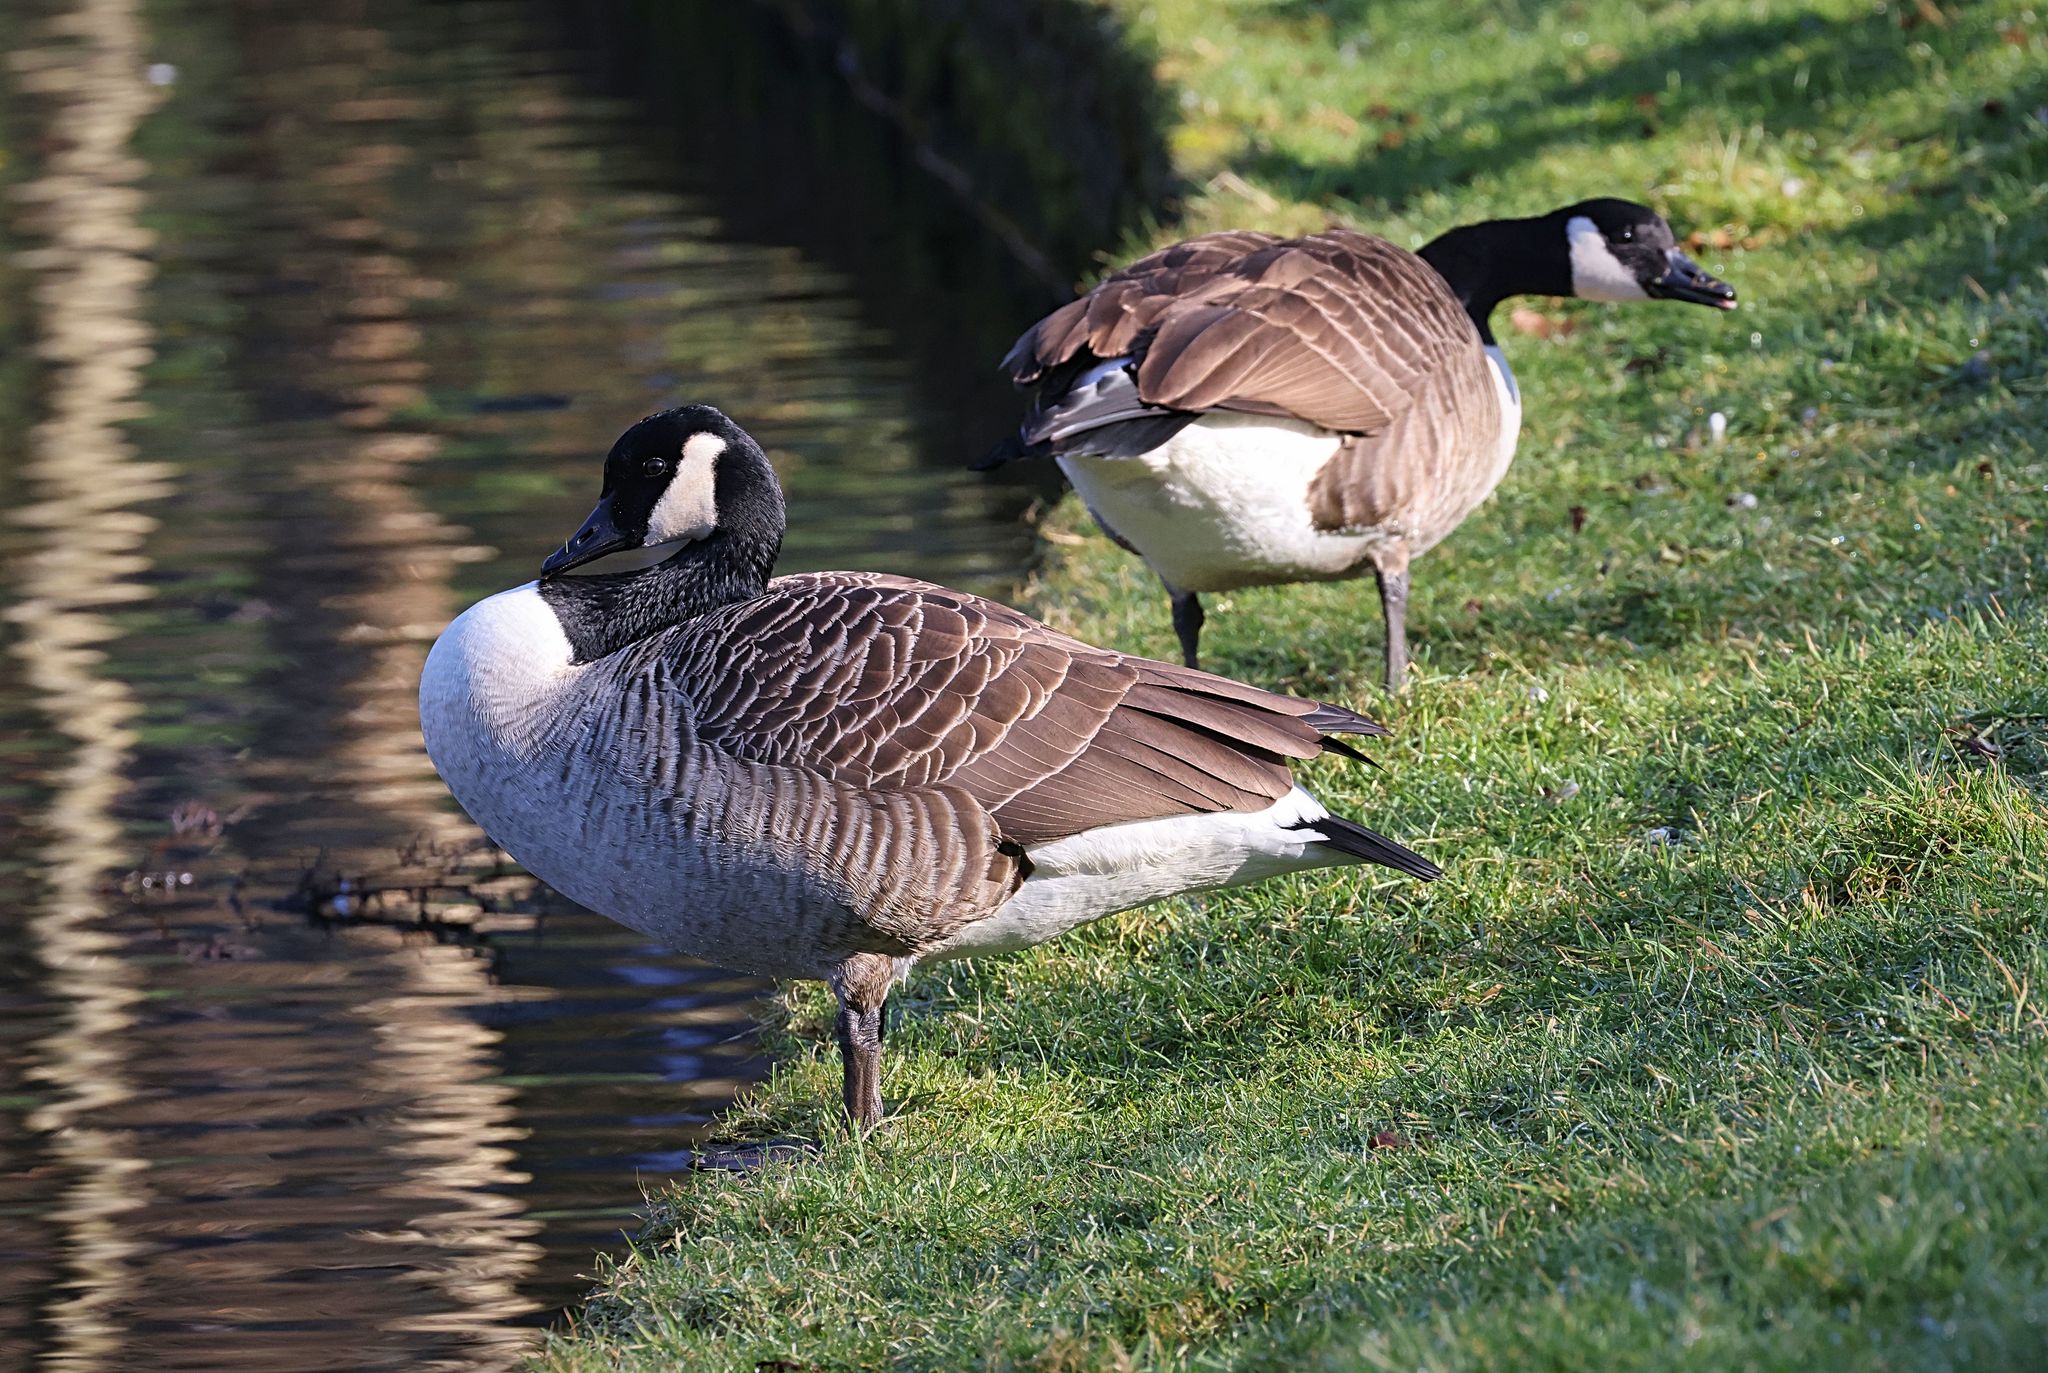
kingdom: Animalia
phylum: Chordata
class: Aves
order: Anseriformes
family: Anatidae
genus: Branta
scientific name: Branta canadensis
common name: Canada goose
